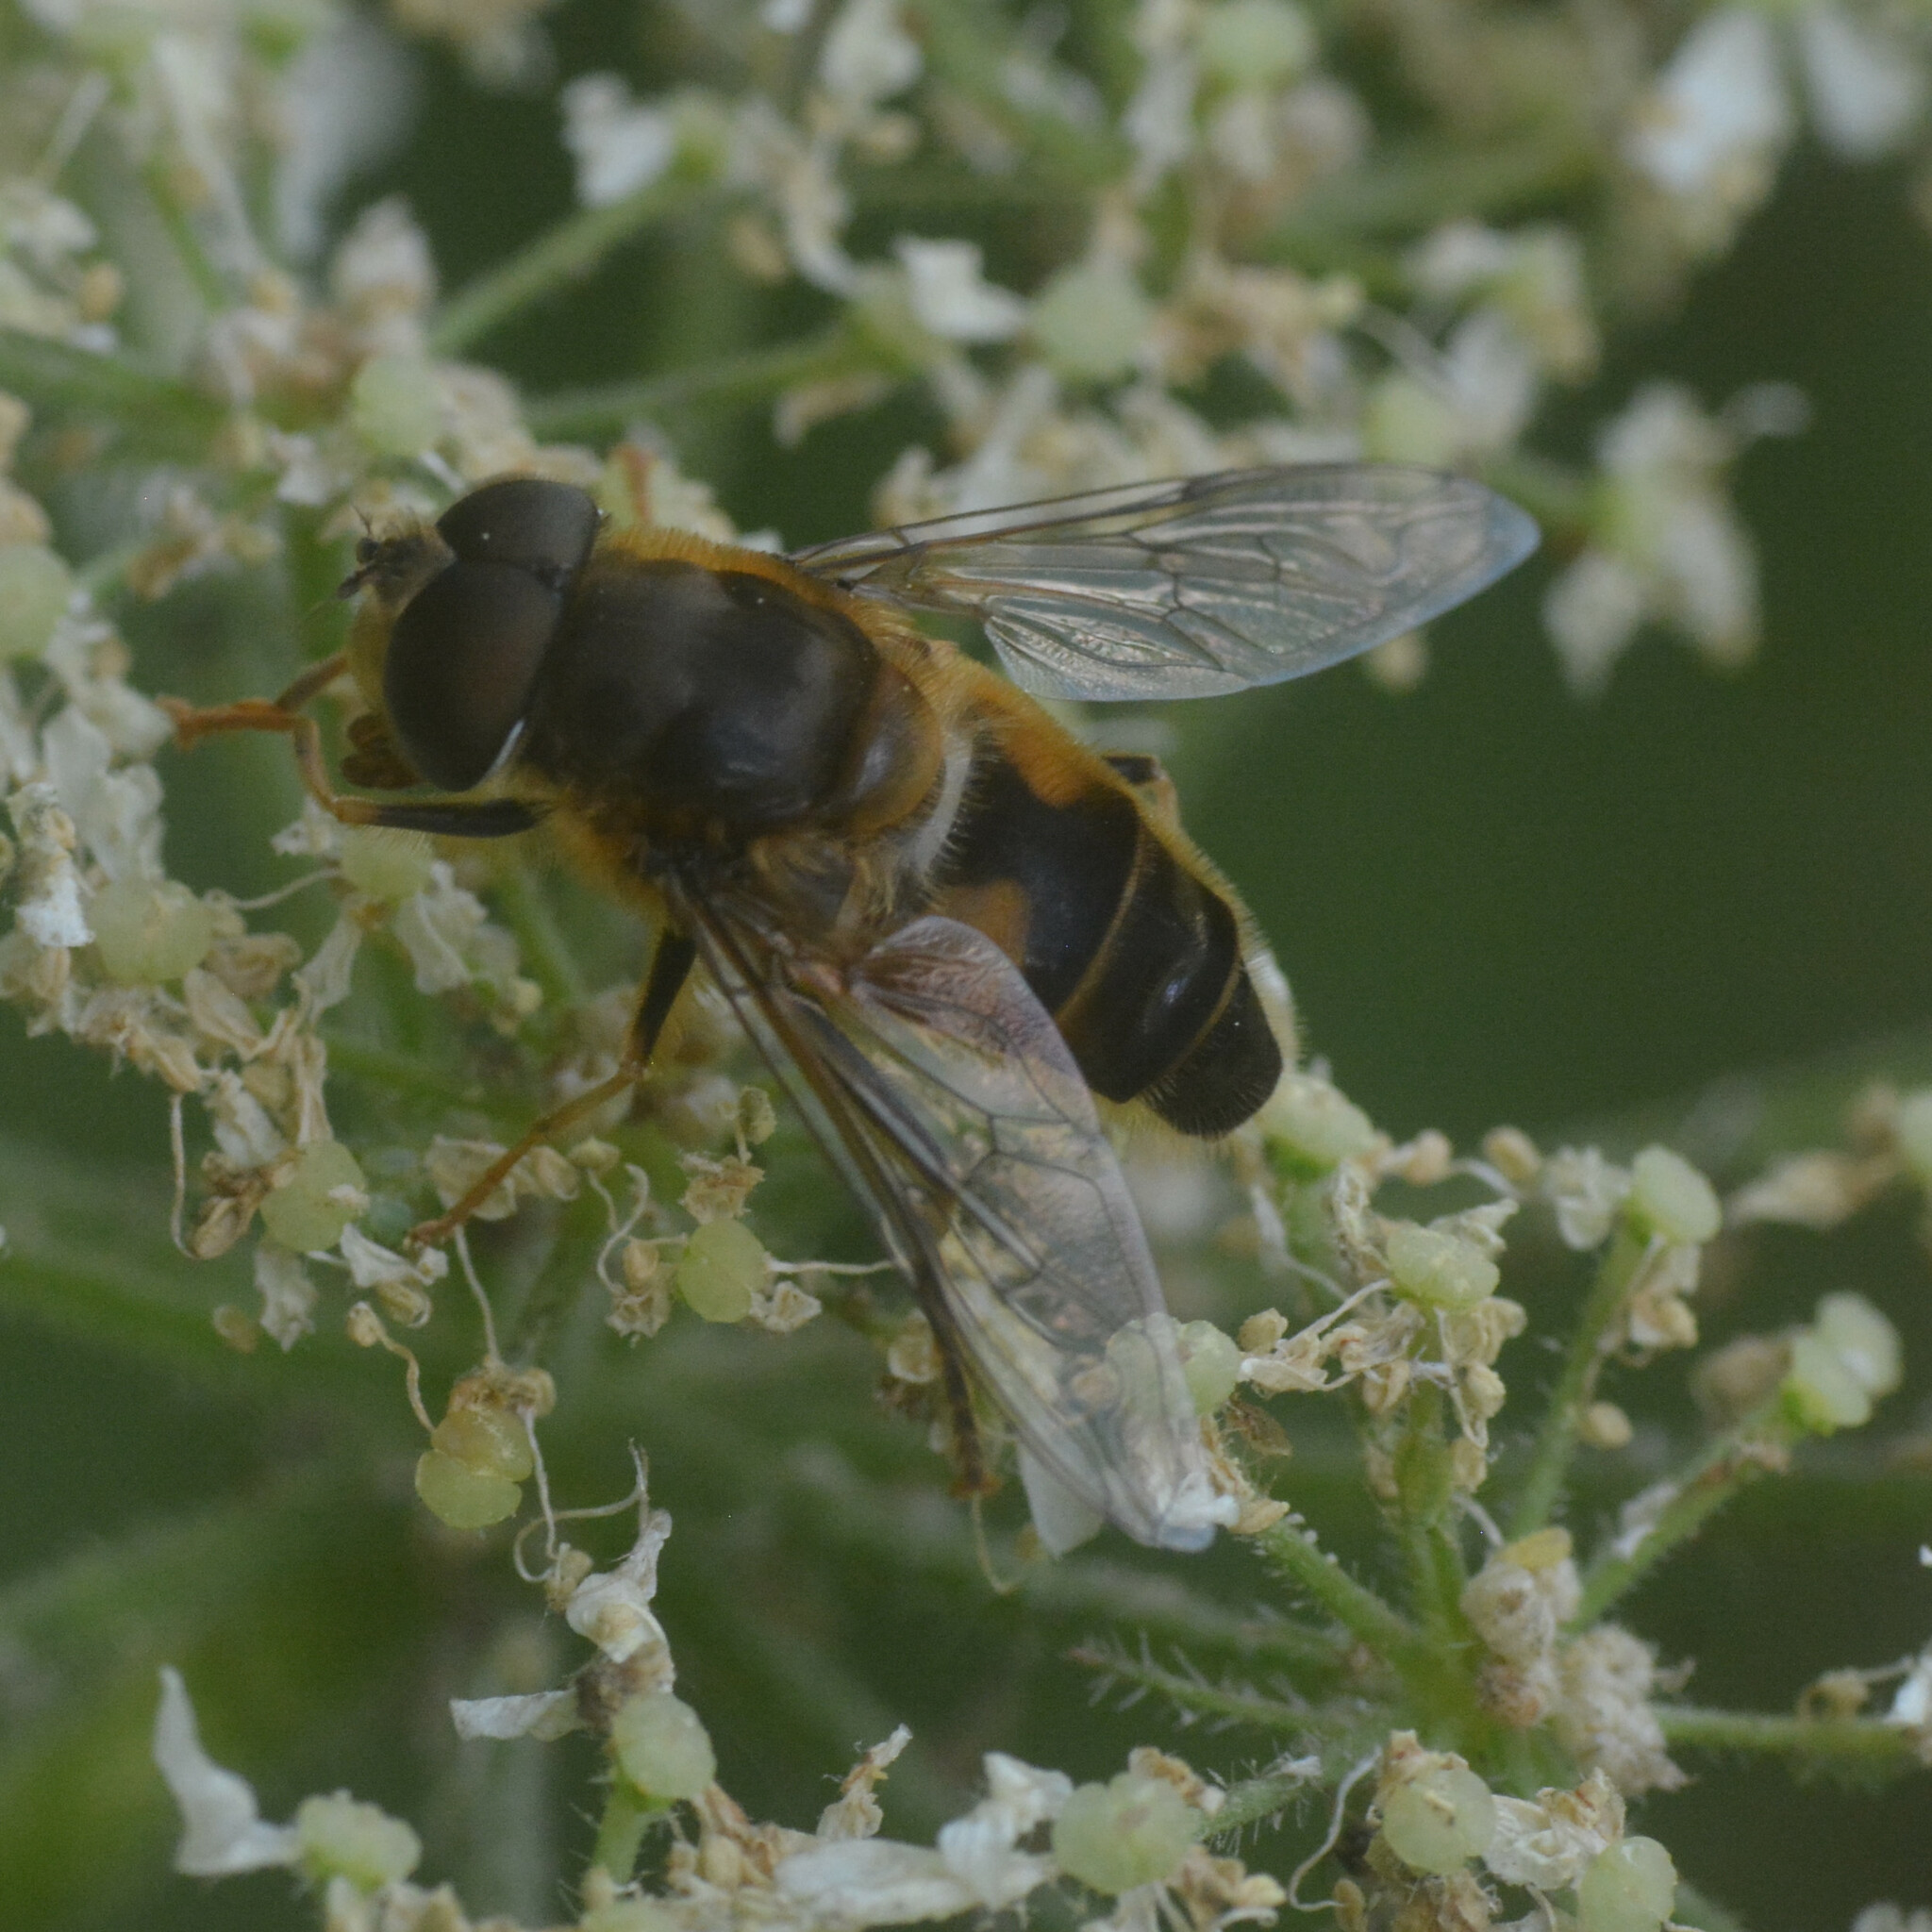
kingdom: Animalia
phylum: Arthropoda
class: Insecta
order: Diptera
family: Syrphidae
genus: Eristalis
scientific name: Eristalis pertinax
